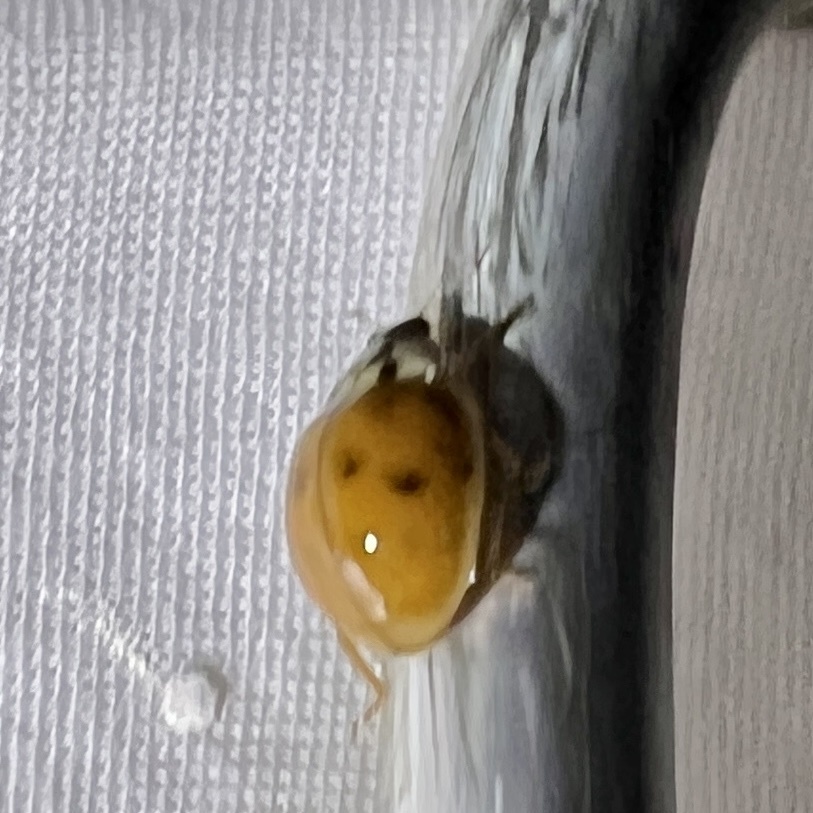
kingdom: Animalia
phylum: Arthropoda
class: Insecta
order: Coleoptera
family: Coccinellidae
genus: Harmonia
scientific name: Harmonia axyridis
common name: Harlequin ladybird
